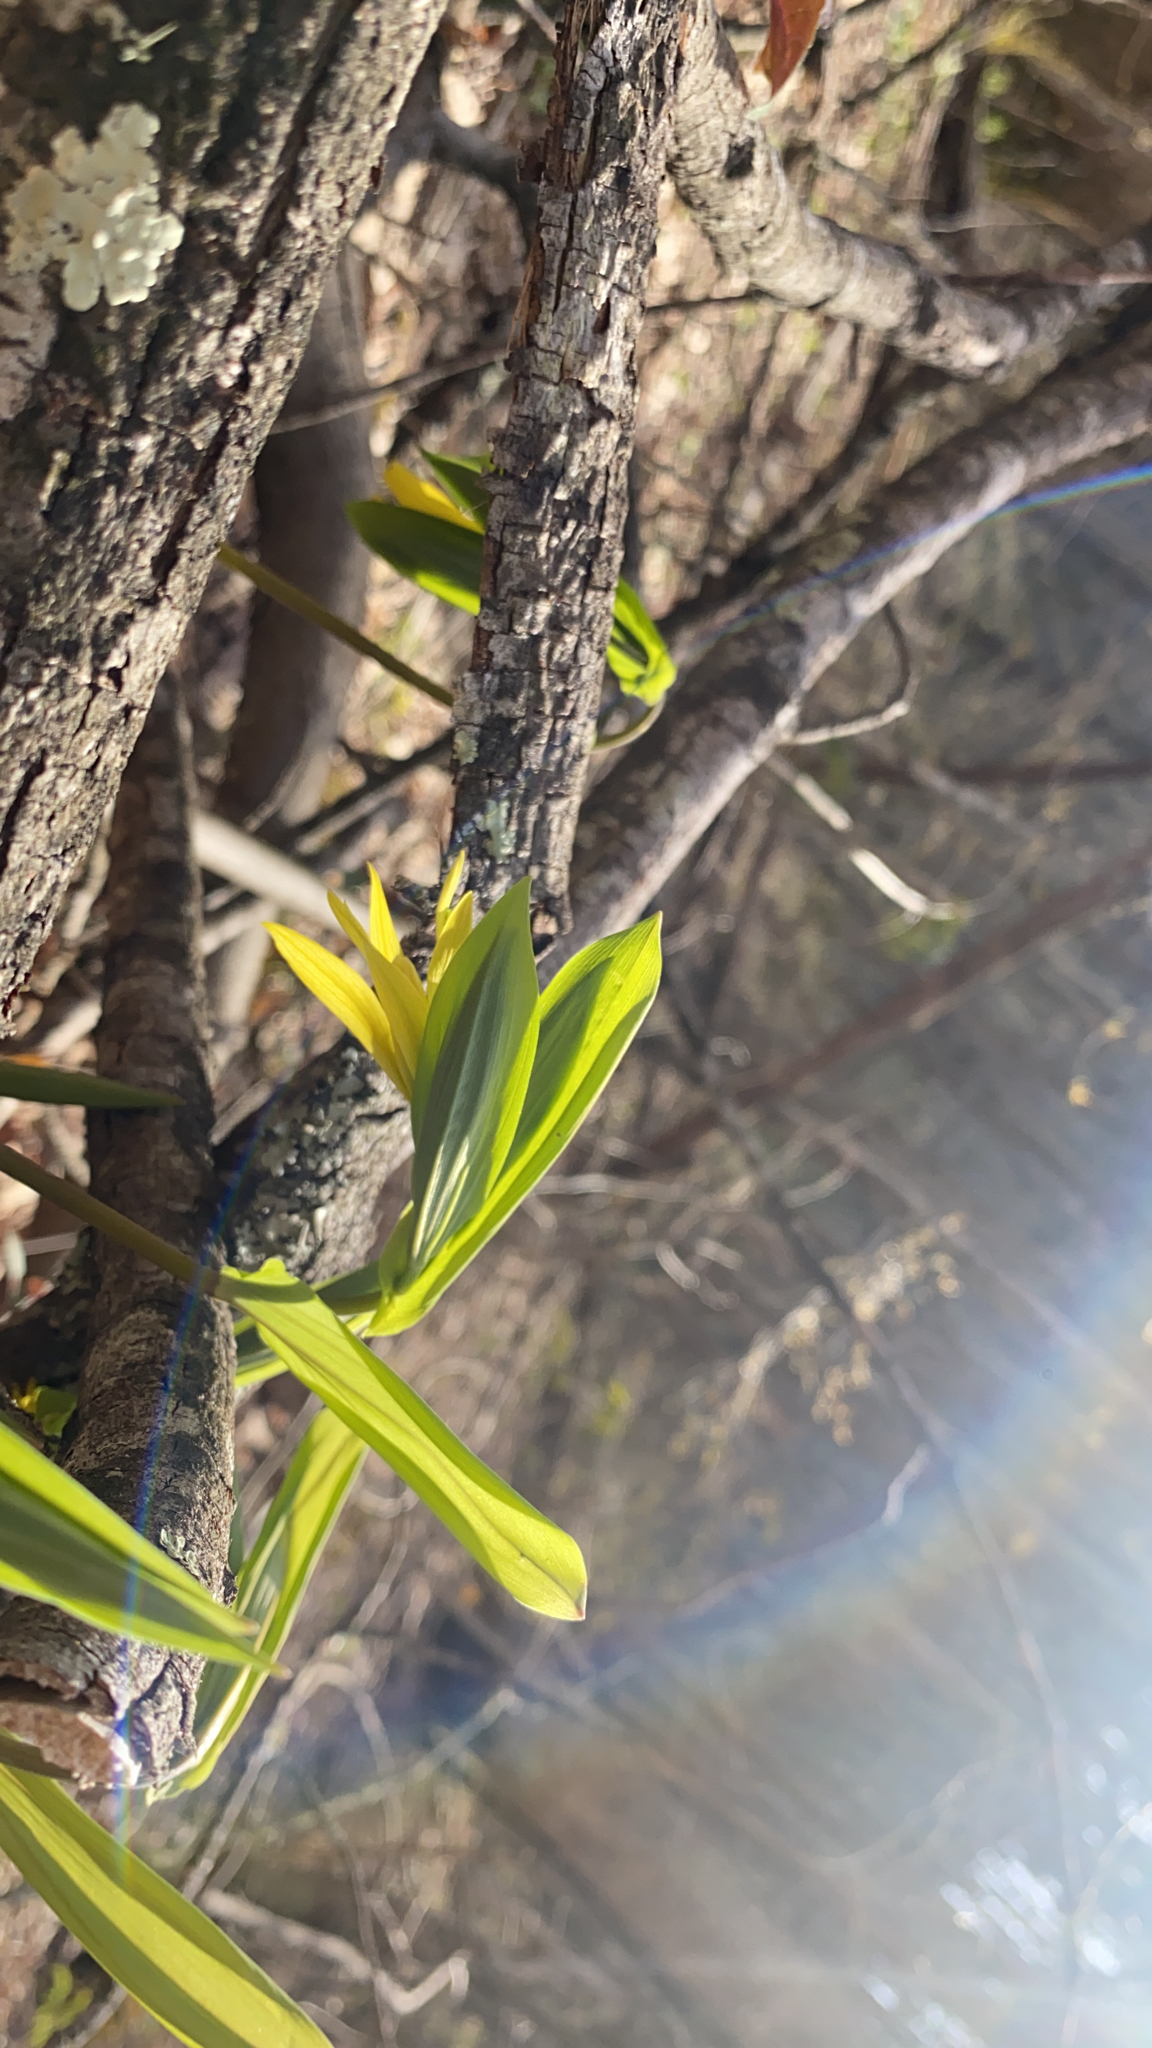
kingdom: Plantae
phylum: Tracheophyta
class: Liliopsida
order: Liliales
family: Colchicaceae
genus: Uvularia
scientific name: Uvularia grandiflora
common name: Bellwort
